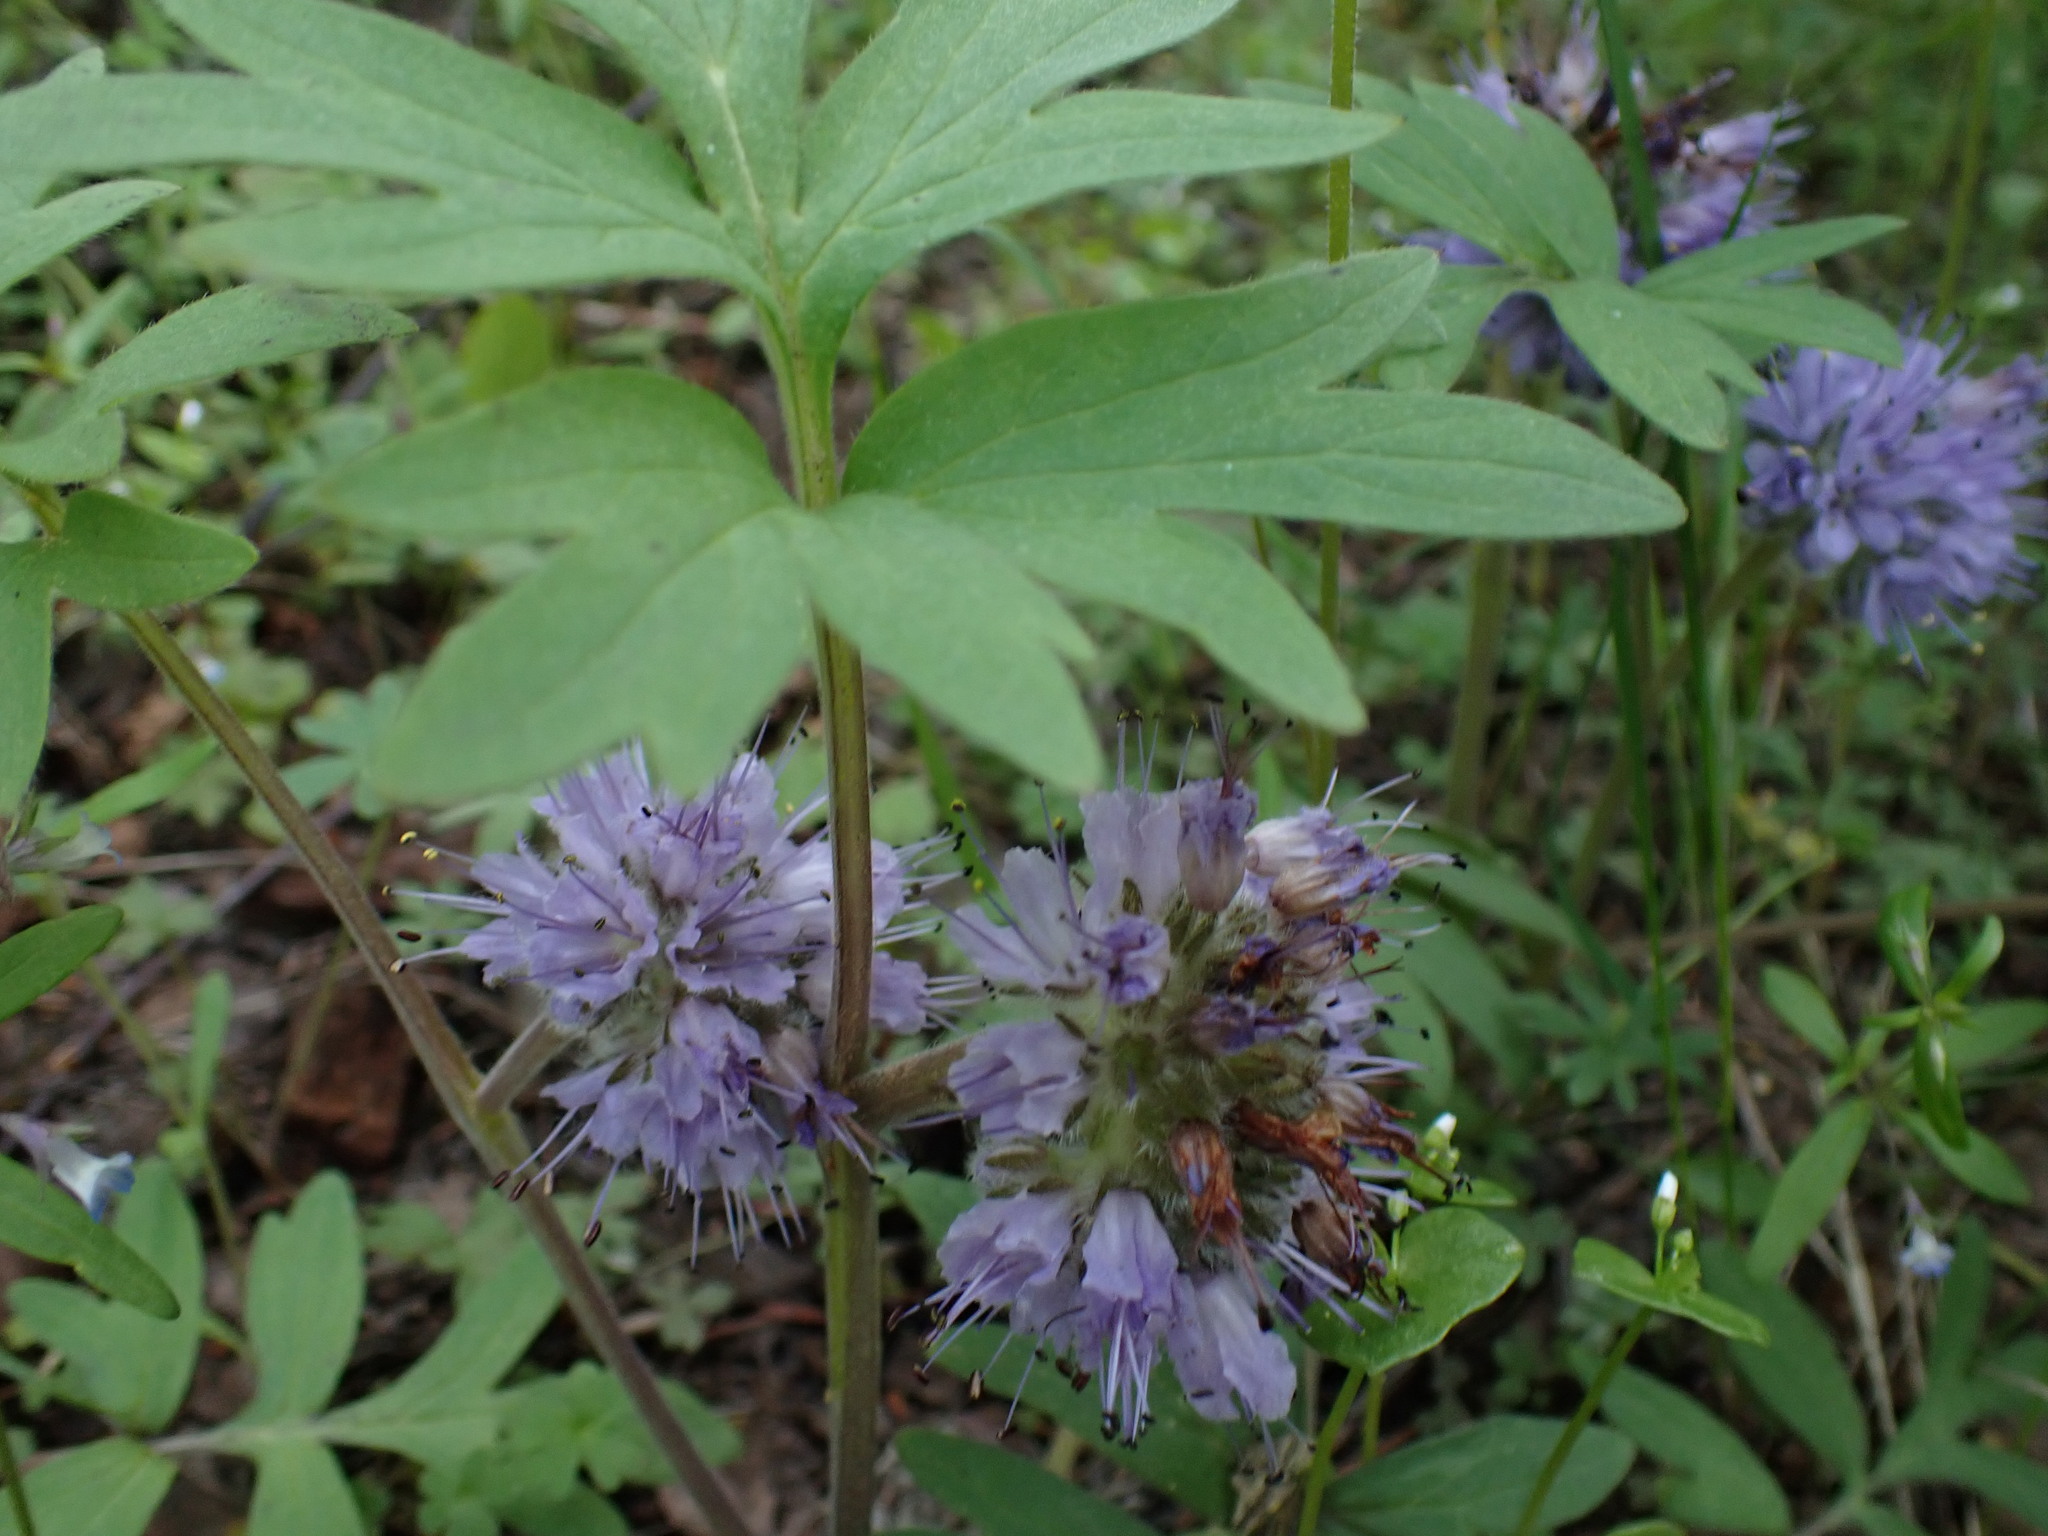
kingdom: Plantae
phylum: Tracheophyta
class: Magnoliopsida
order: Boraginales
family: Hydrophyllaceae
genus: Hydrophyllum
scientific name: Hydrophyllum capitatum
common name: Woollen-breeches
